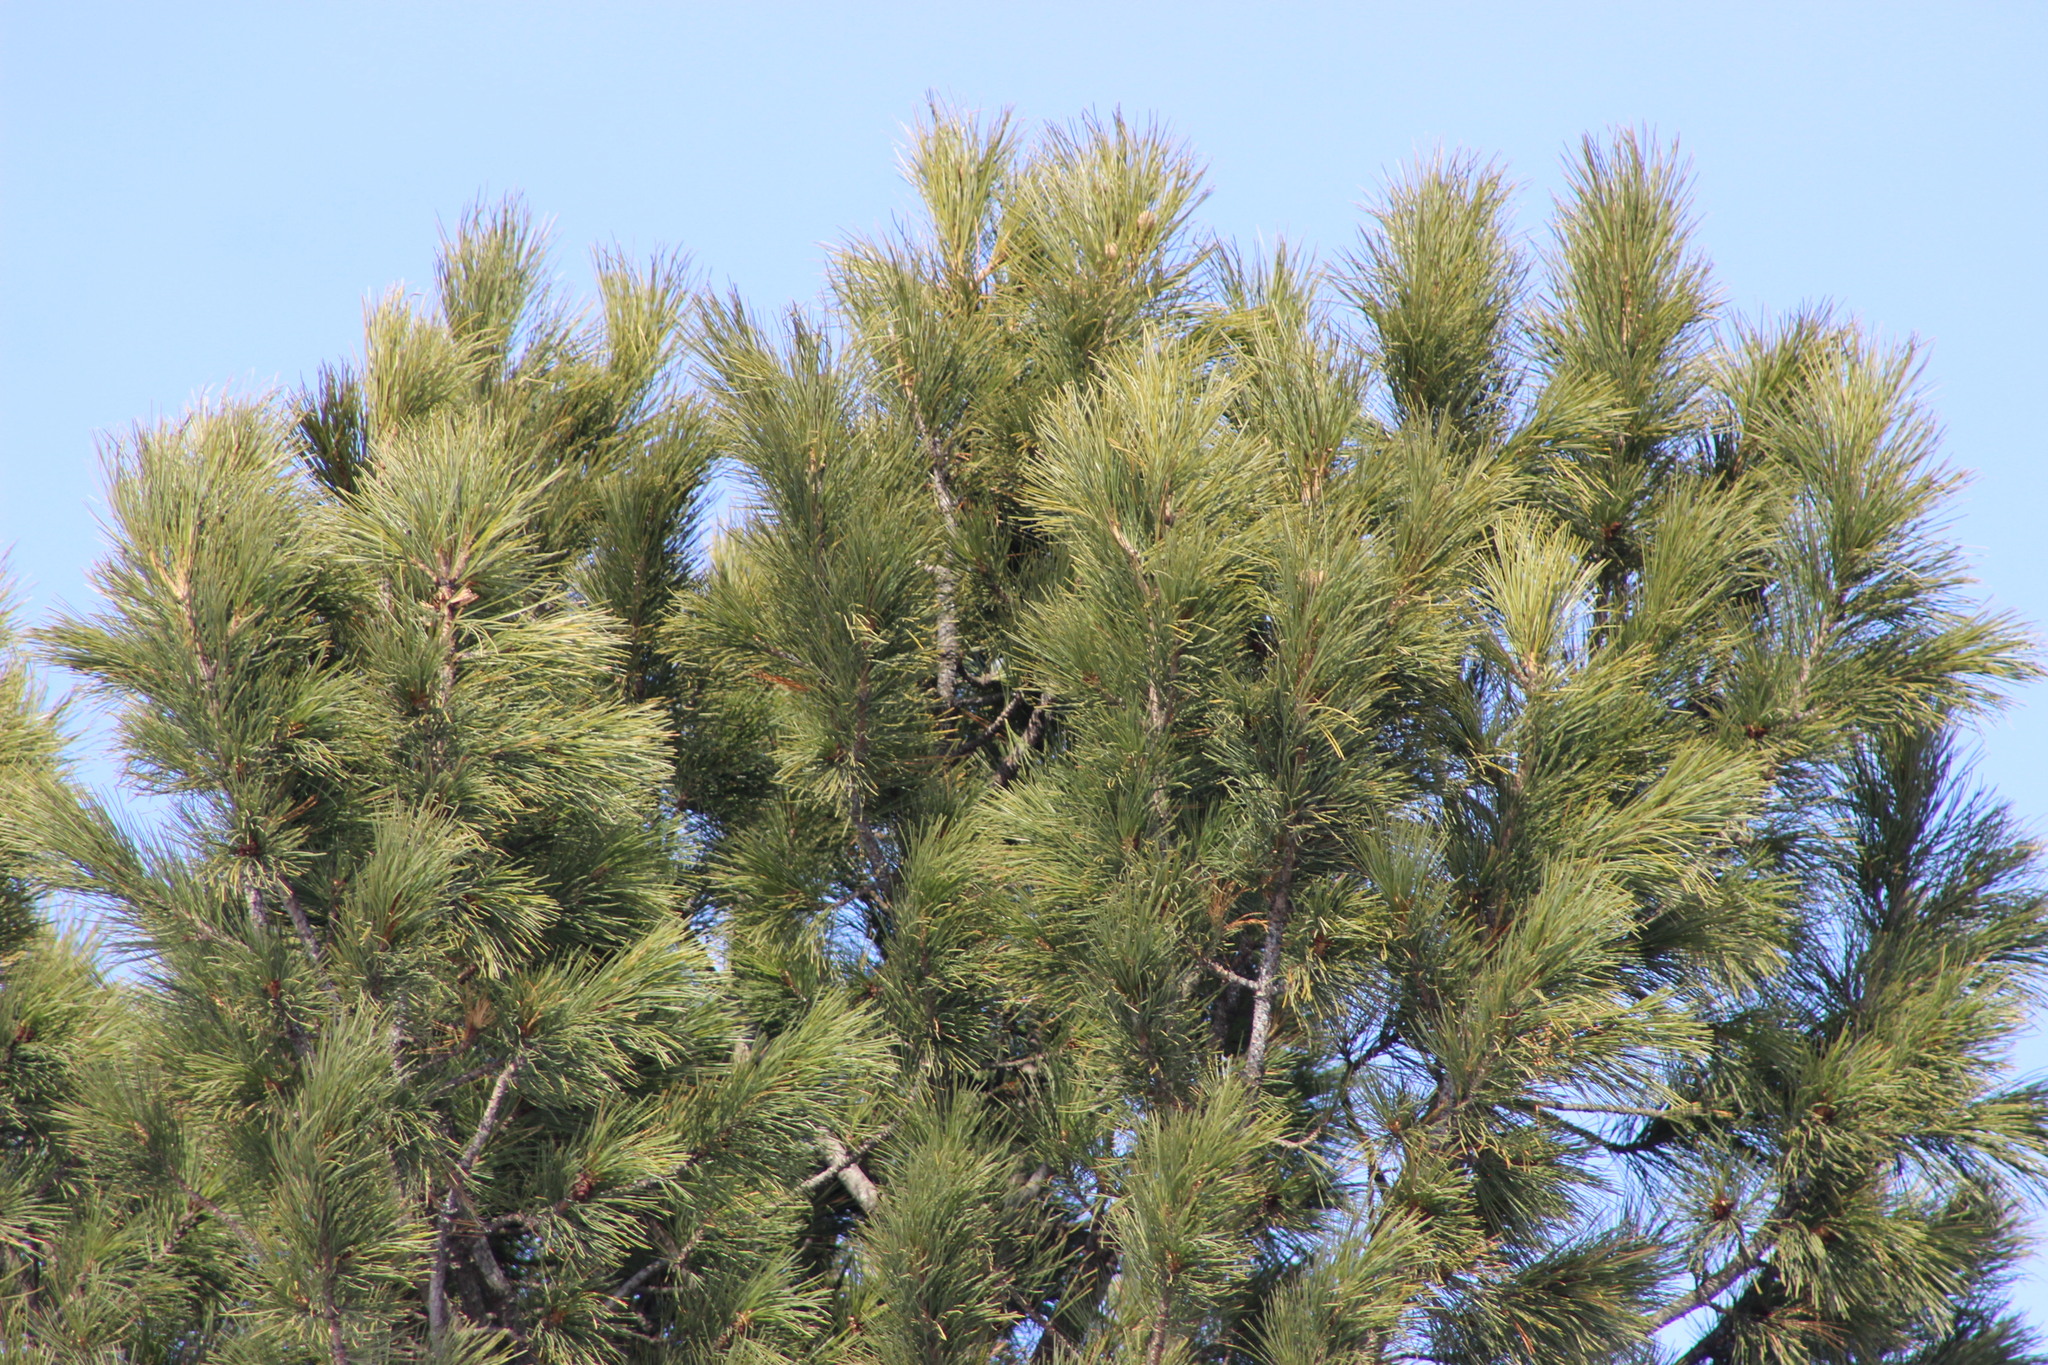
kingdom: Plantae
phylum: Tracheophyta
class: Pinopsida
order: Pinales
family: Pinaceae
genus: Pinus
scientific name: Pinus sibirica
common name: Siberian pine
